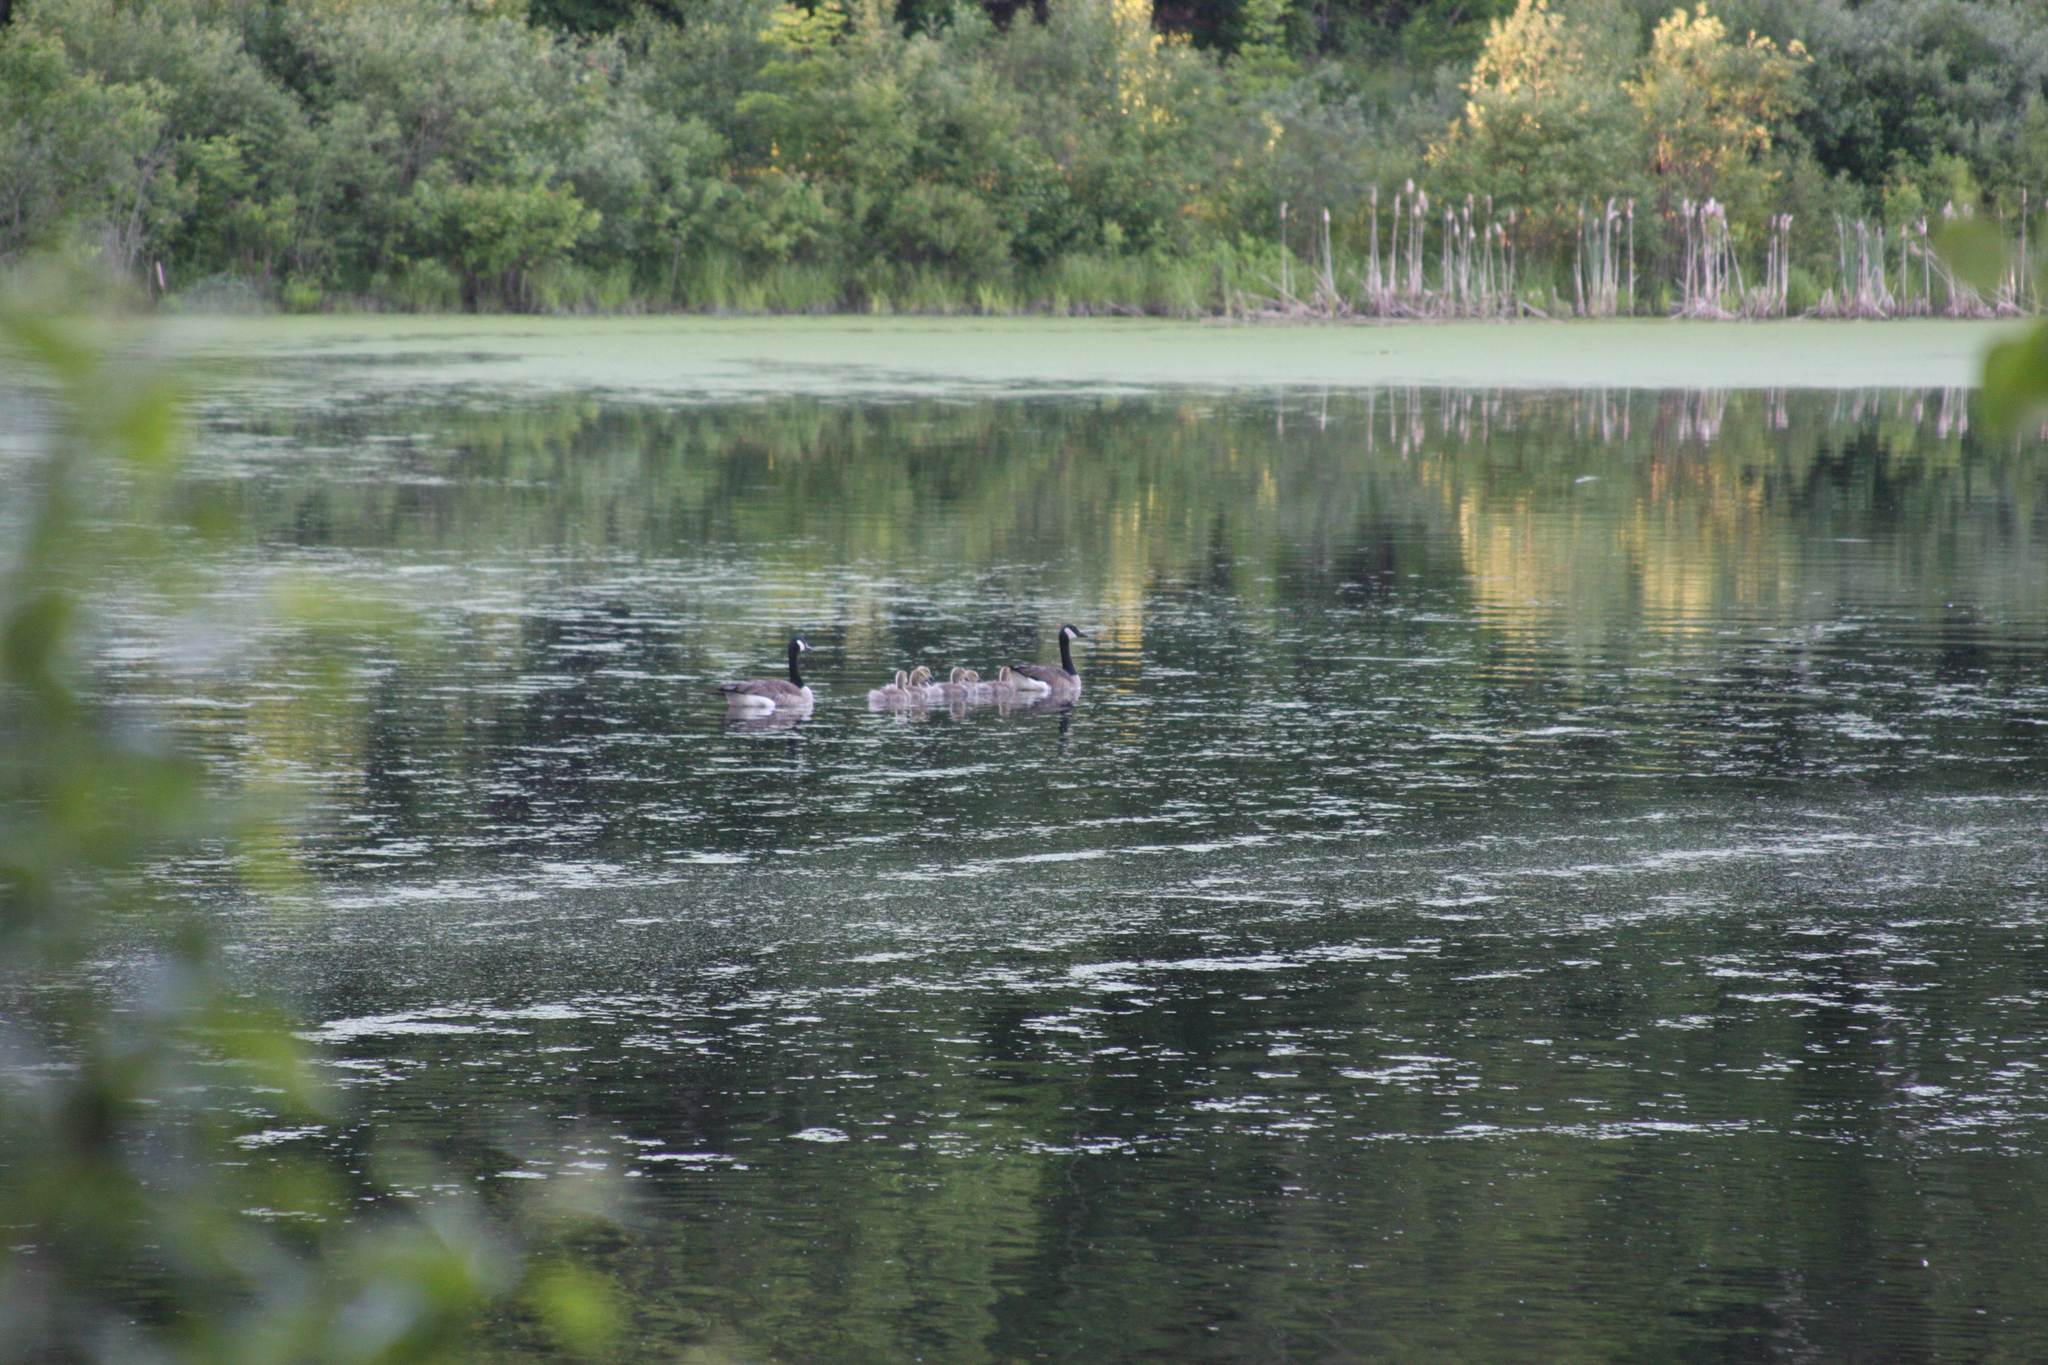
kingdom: Animalia
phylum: Chordata
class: Aves
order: Anseriformes
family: Anatidae
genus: Branta
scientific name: Branta canadensis
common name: Canada goose
